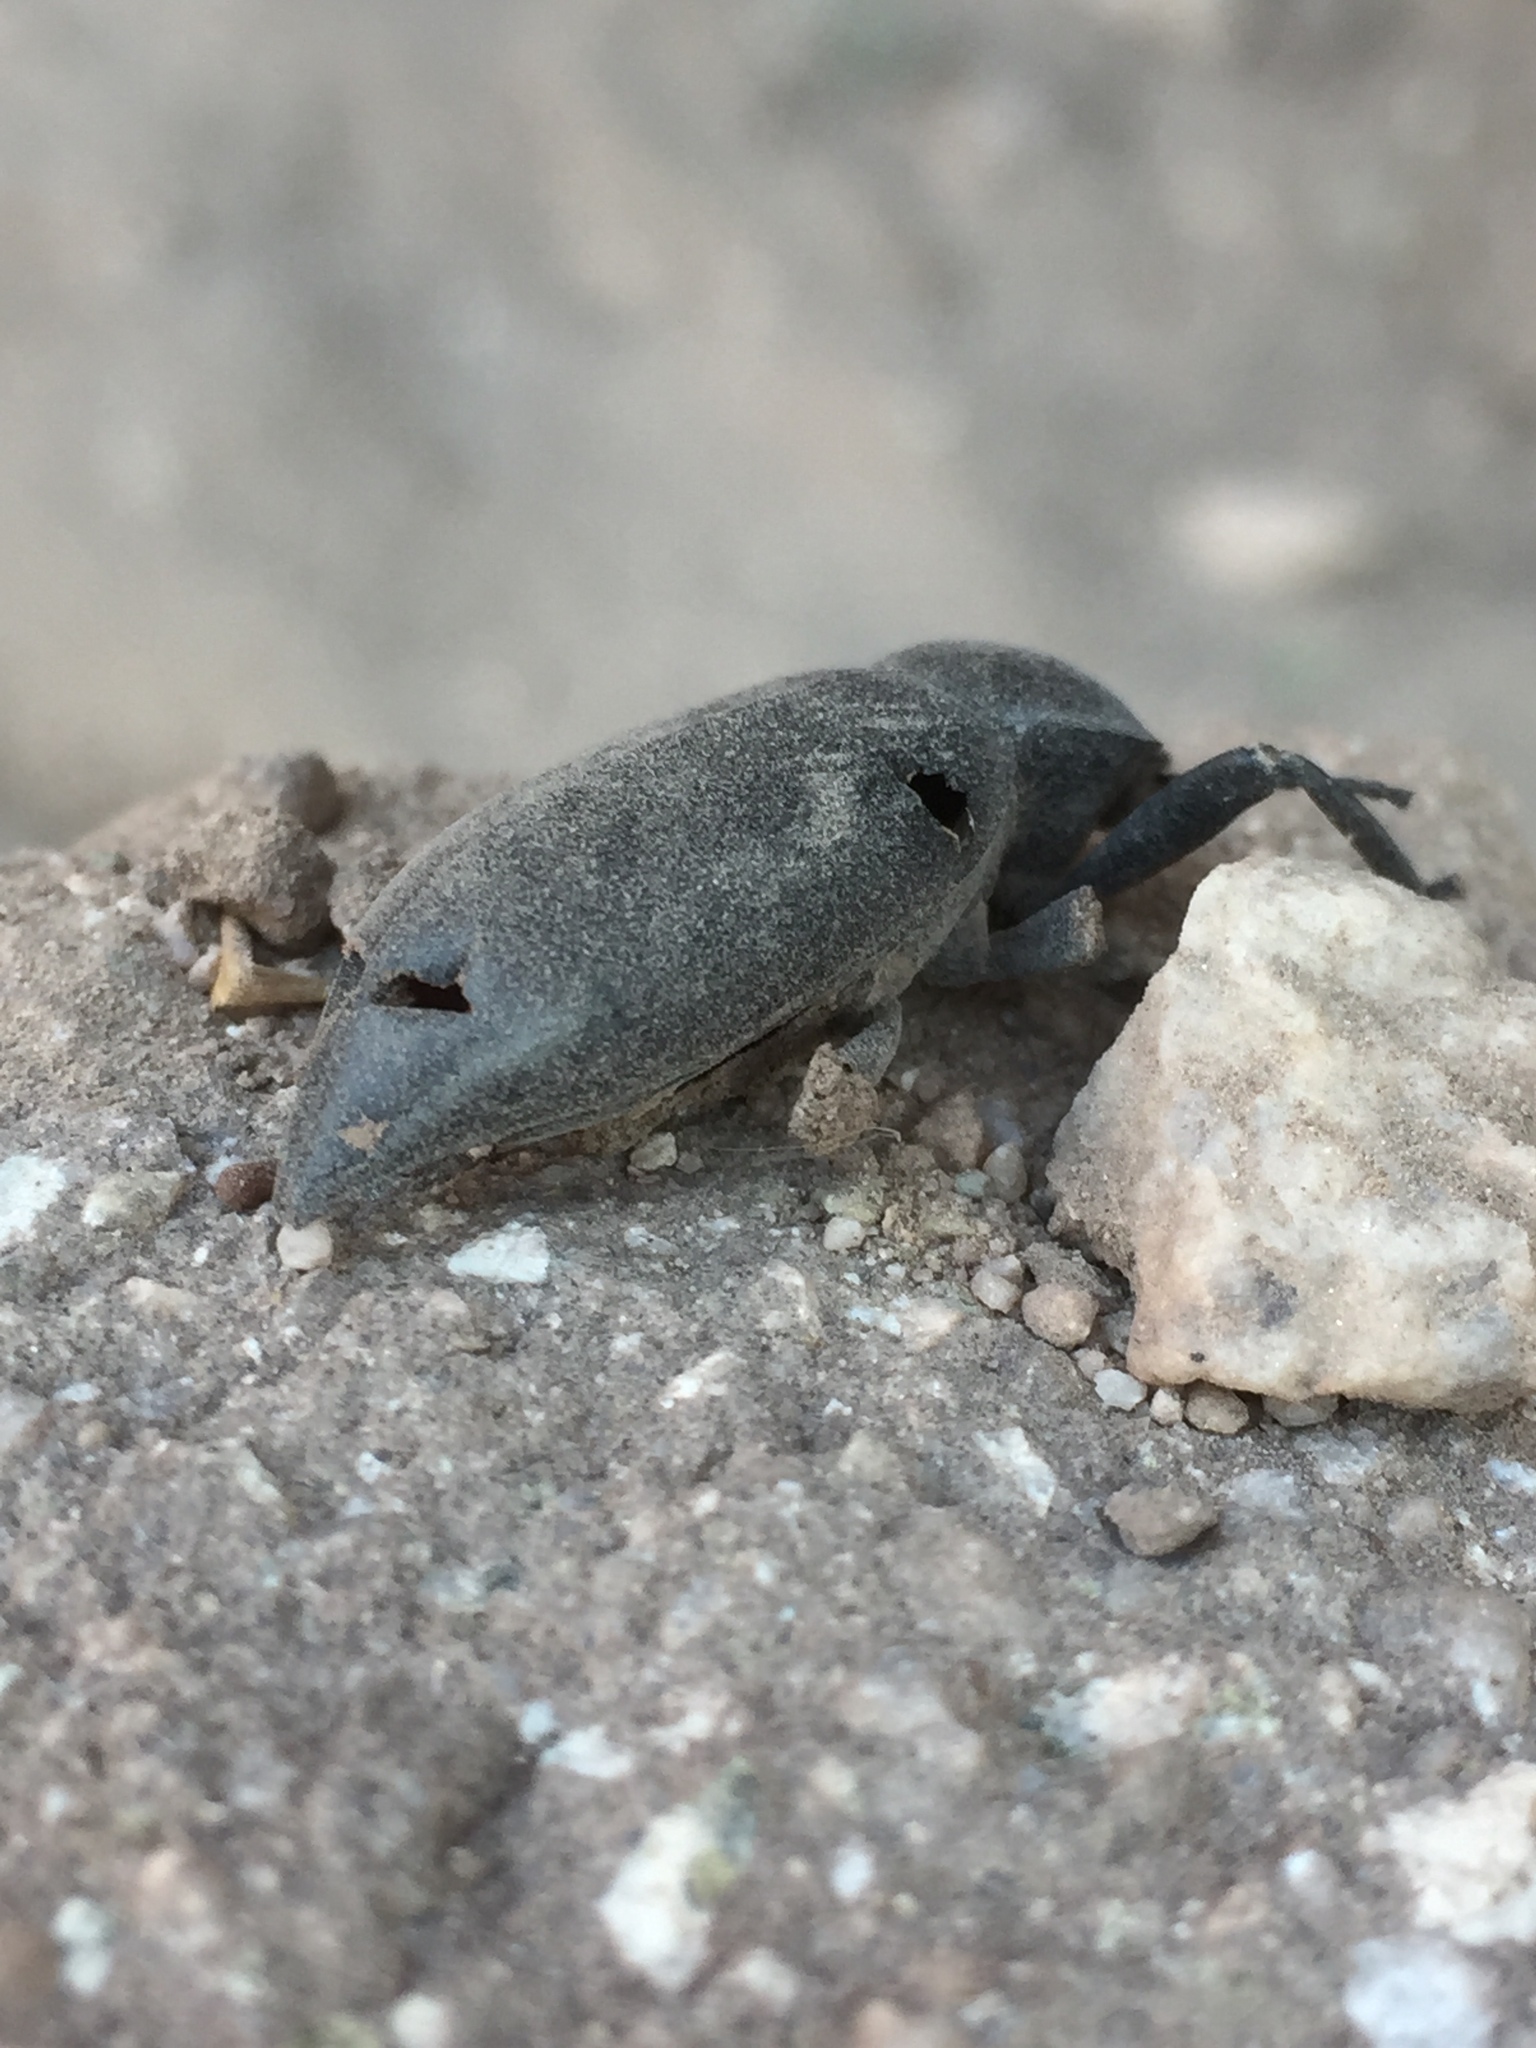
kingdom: Animalia
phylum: Arthropoda
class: Insecta
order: Coleoptera
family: Tenebrionidae
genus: Eleodes
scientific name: Eleodes gigantea
